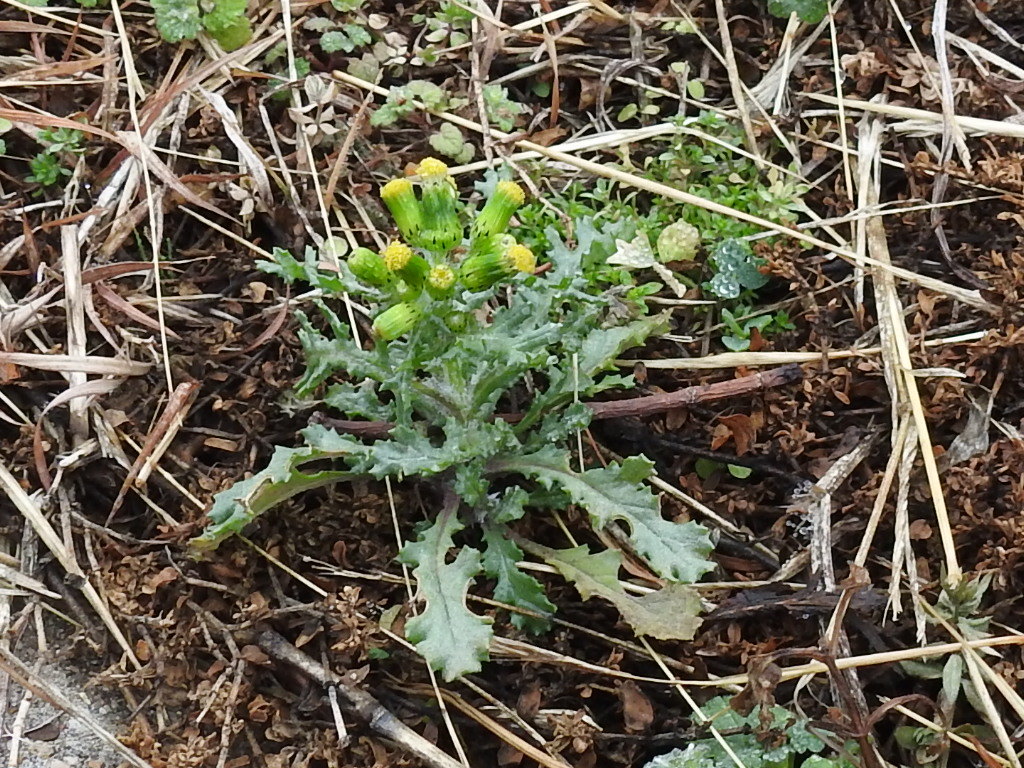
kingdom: Plantae
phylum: Tracheophyta
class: Magnoliopsida
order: Asterales
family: Asteraceae
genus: Senecio
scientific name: Senecio vulgaris
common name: Old-man-in-the-spring
